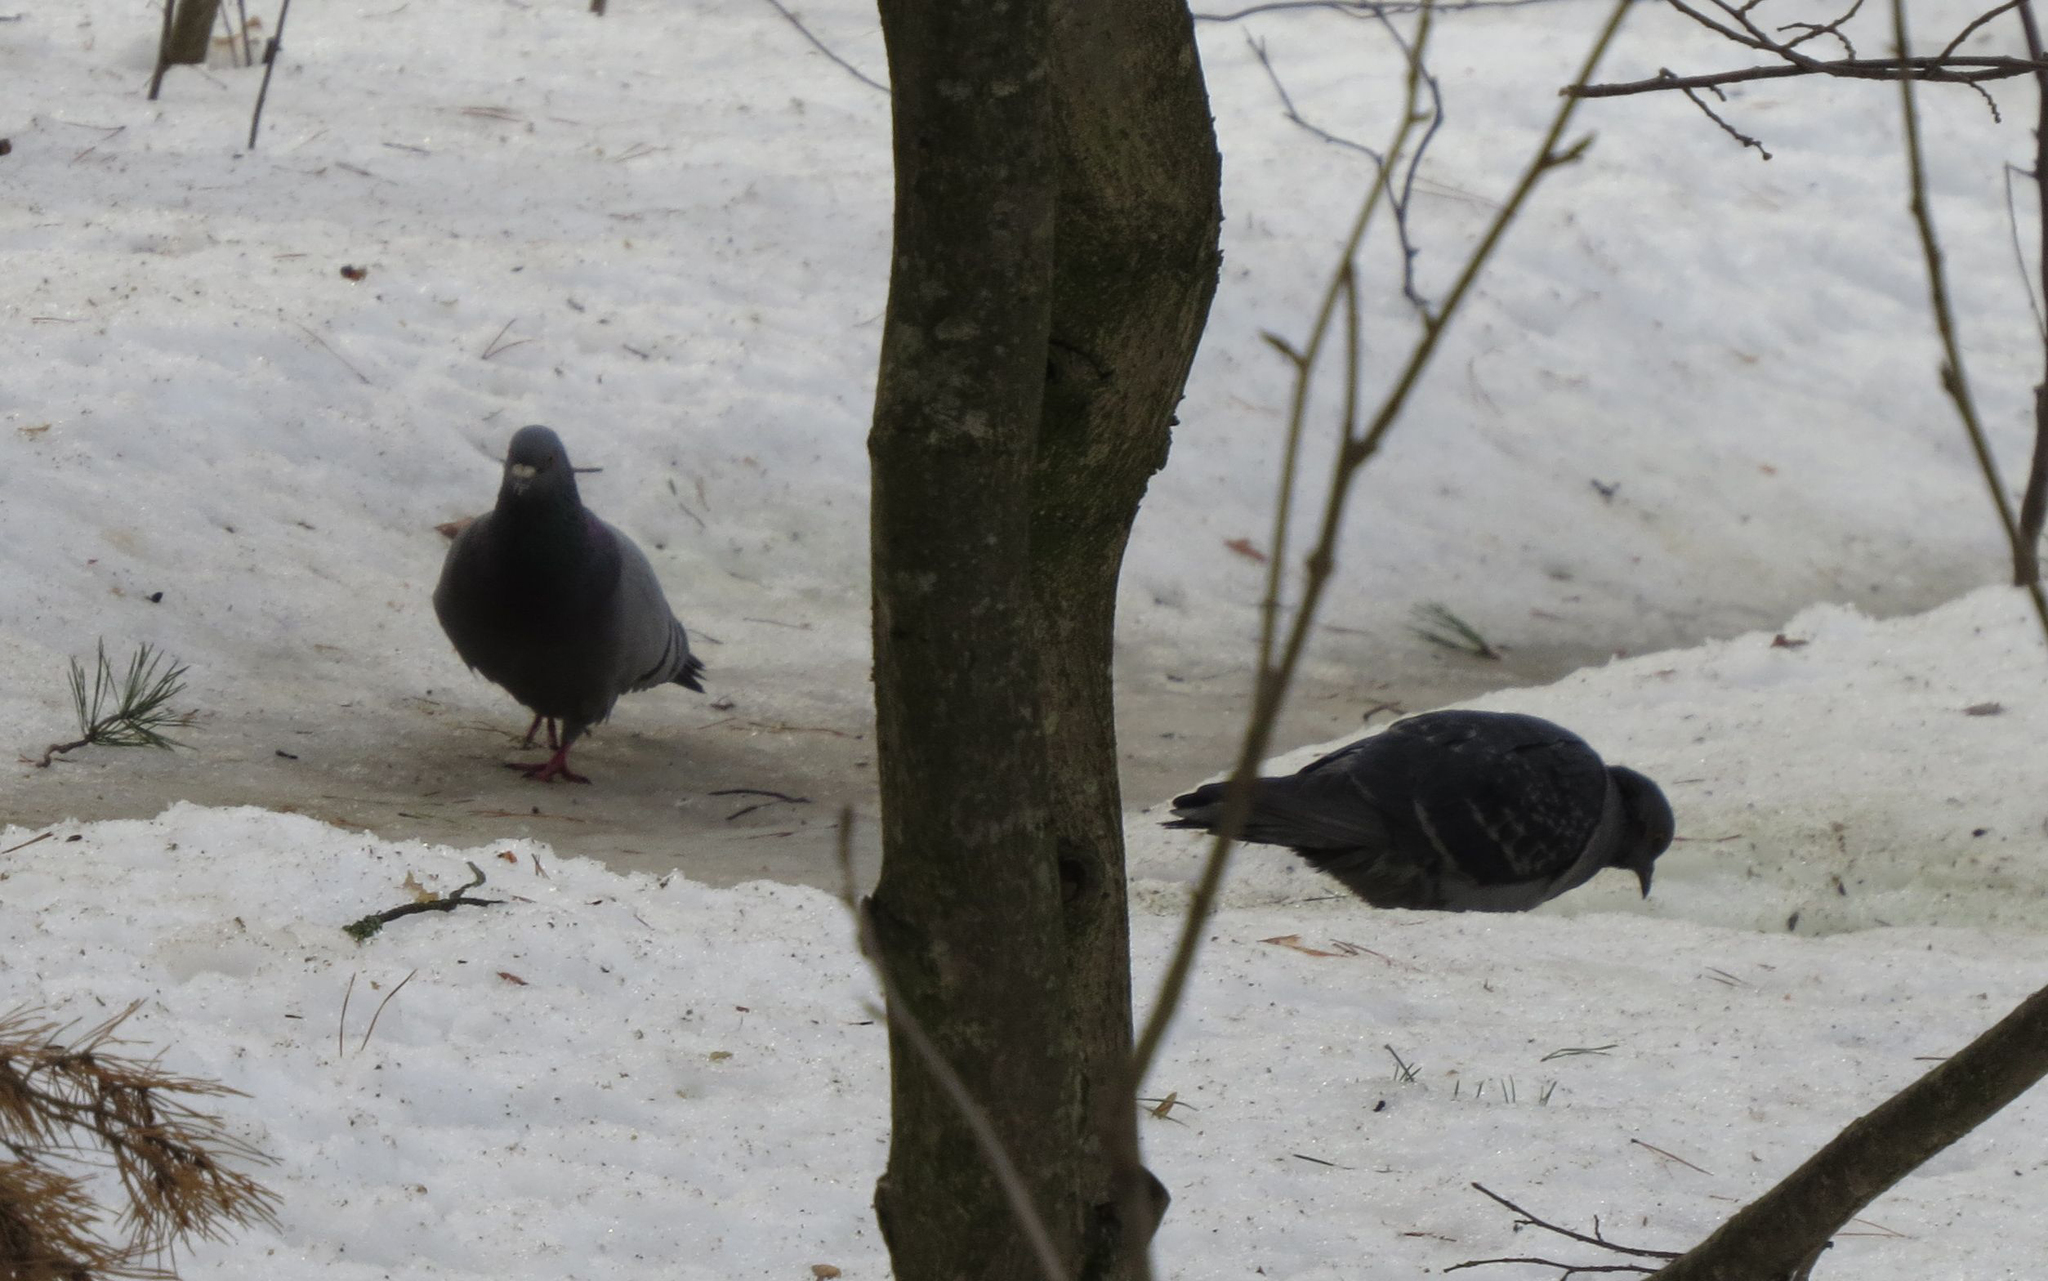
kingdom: Animalia
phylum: Chordata
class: Aves
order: Columbiformes
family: Columbidae
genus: Columba
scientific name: Columba livia
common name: Rock pigeon
